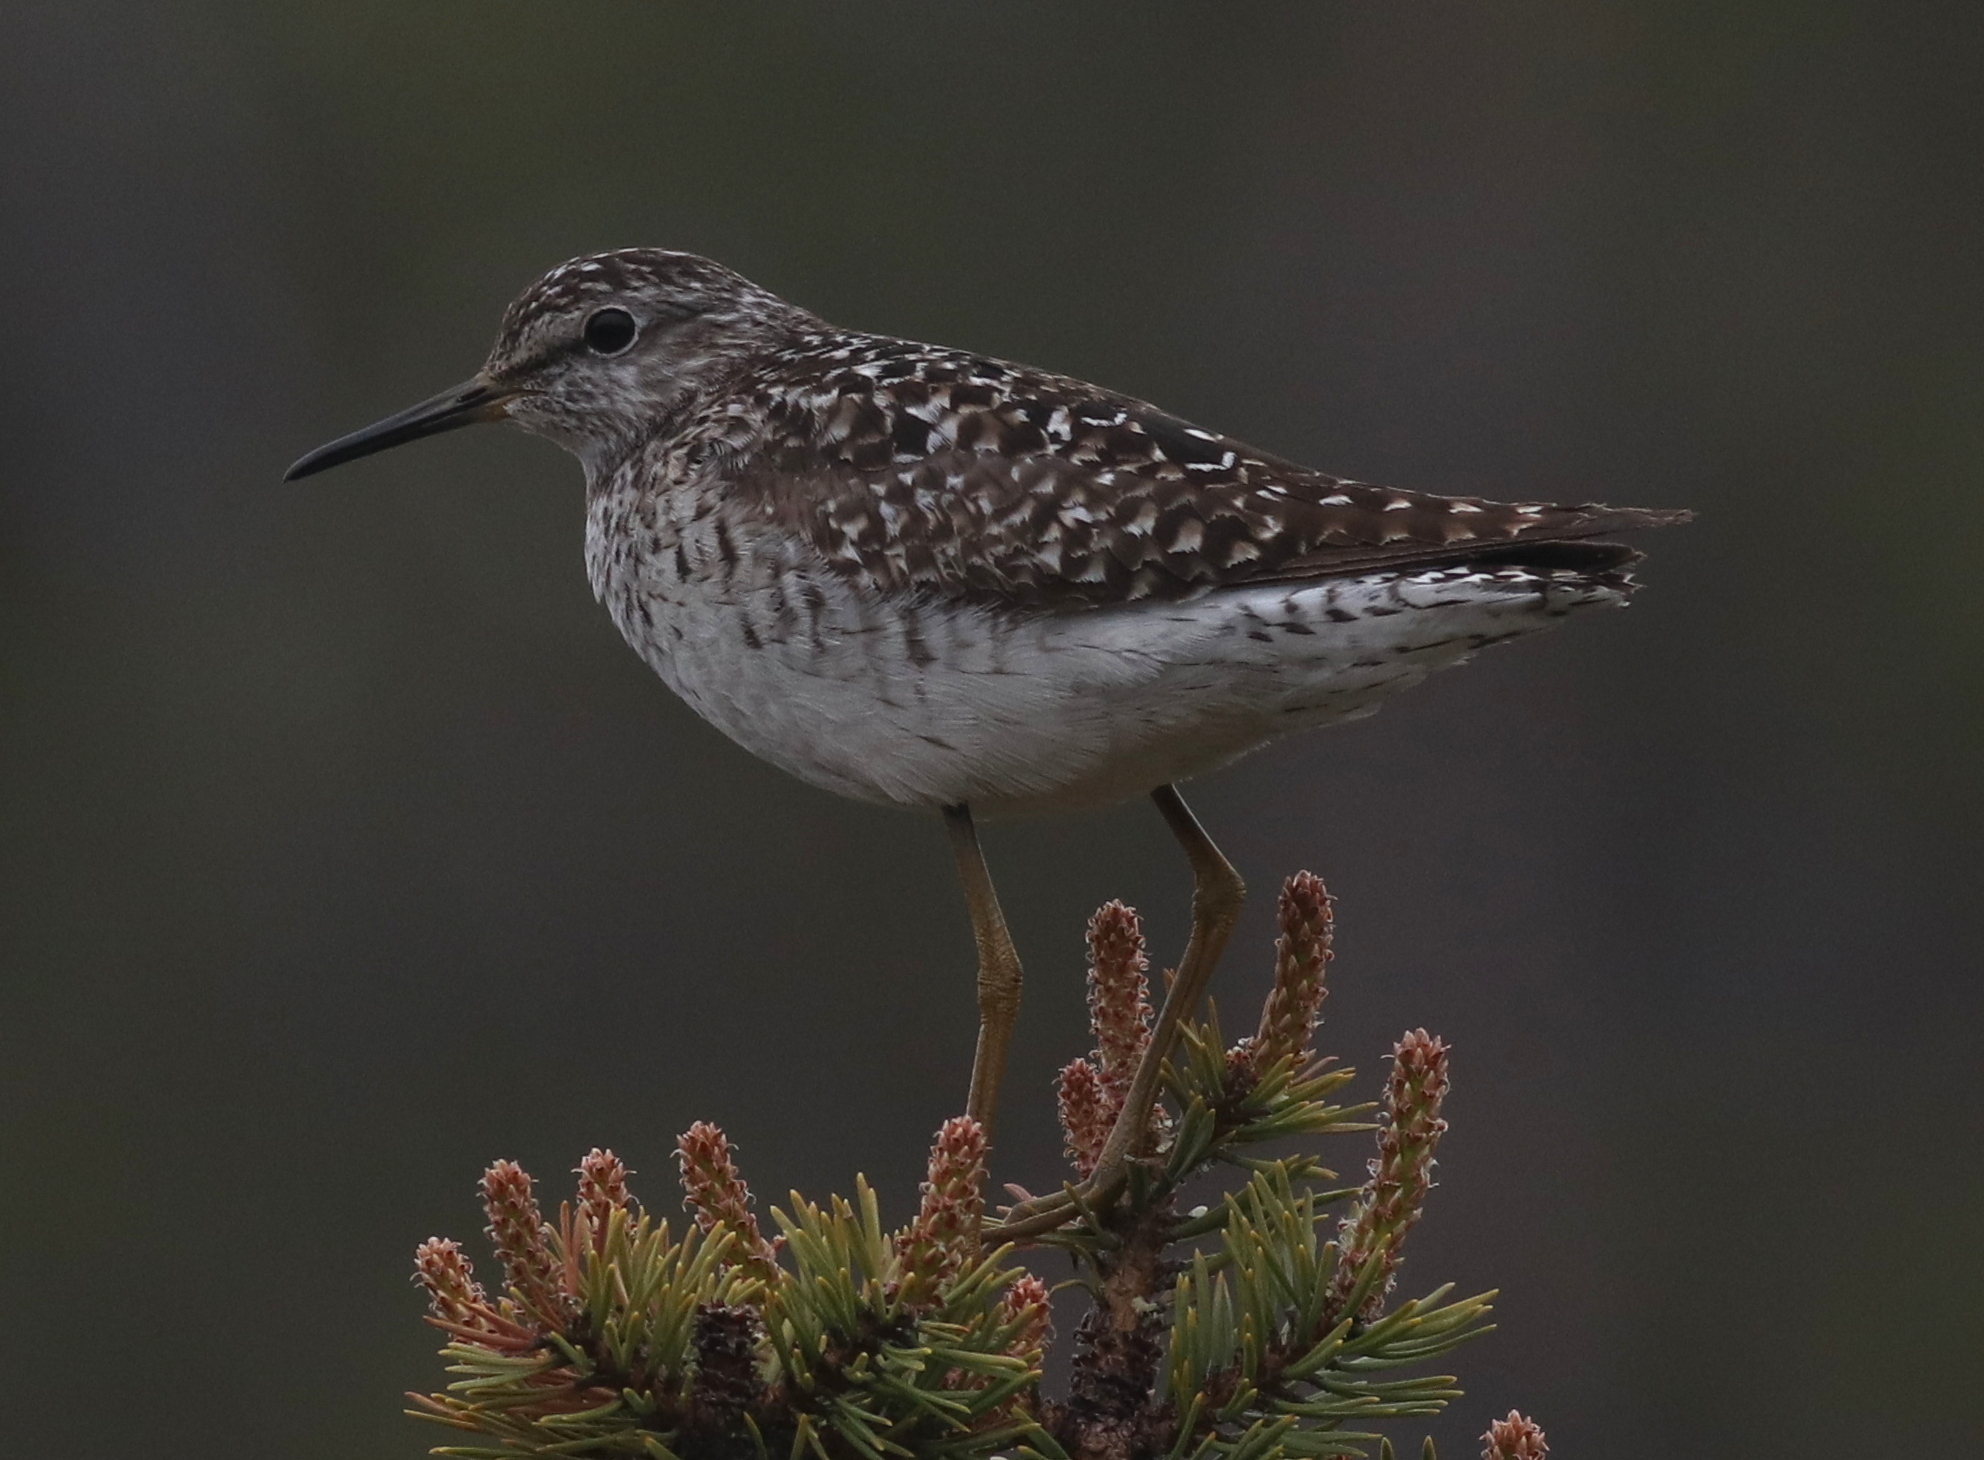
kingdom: Animalia
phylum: Chordata
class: Aves
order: Charadriiformes
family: Scolopacidae
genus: Tringa
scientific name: Tringa glareola
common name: Wood sandpiper
